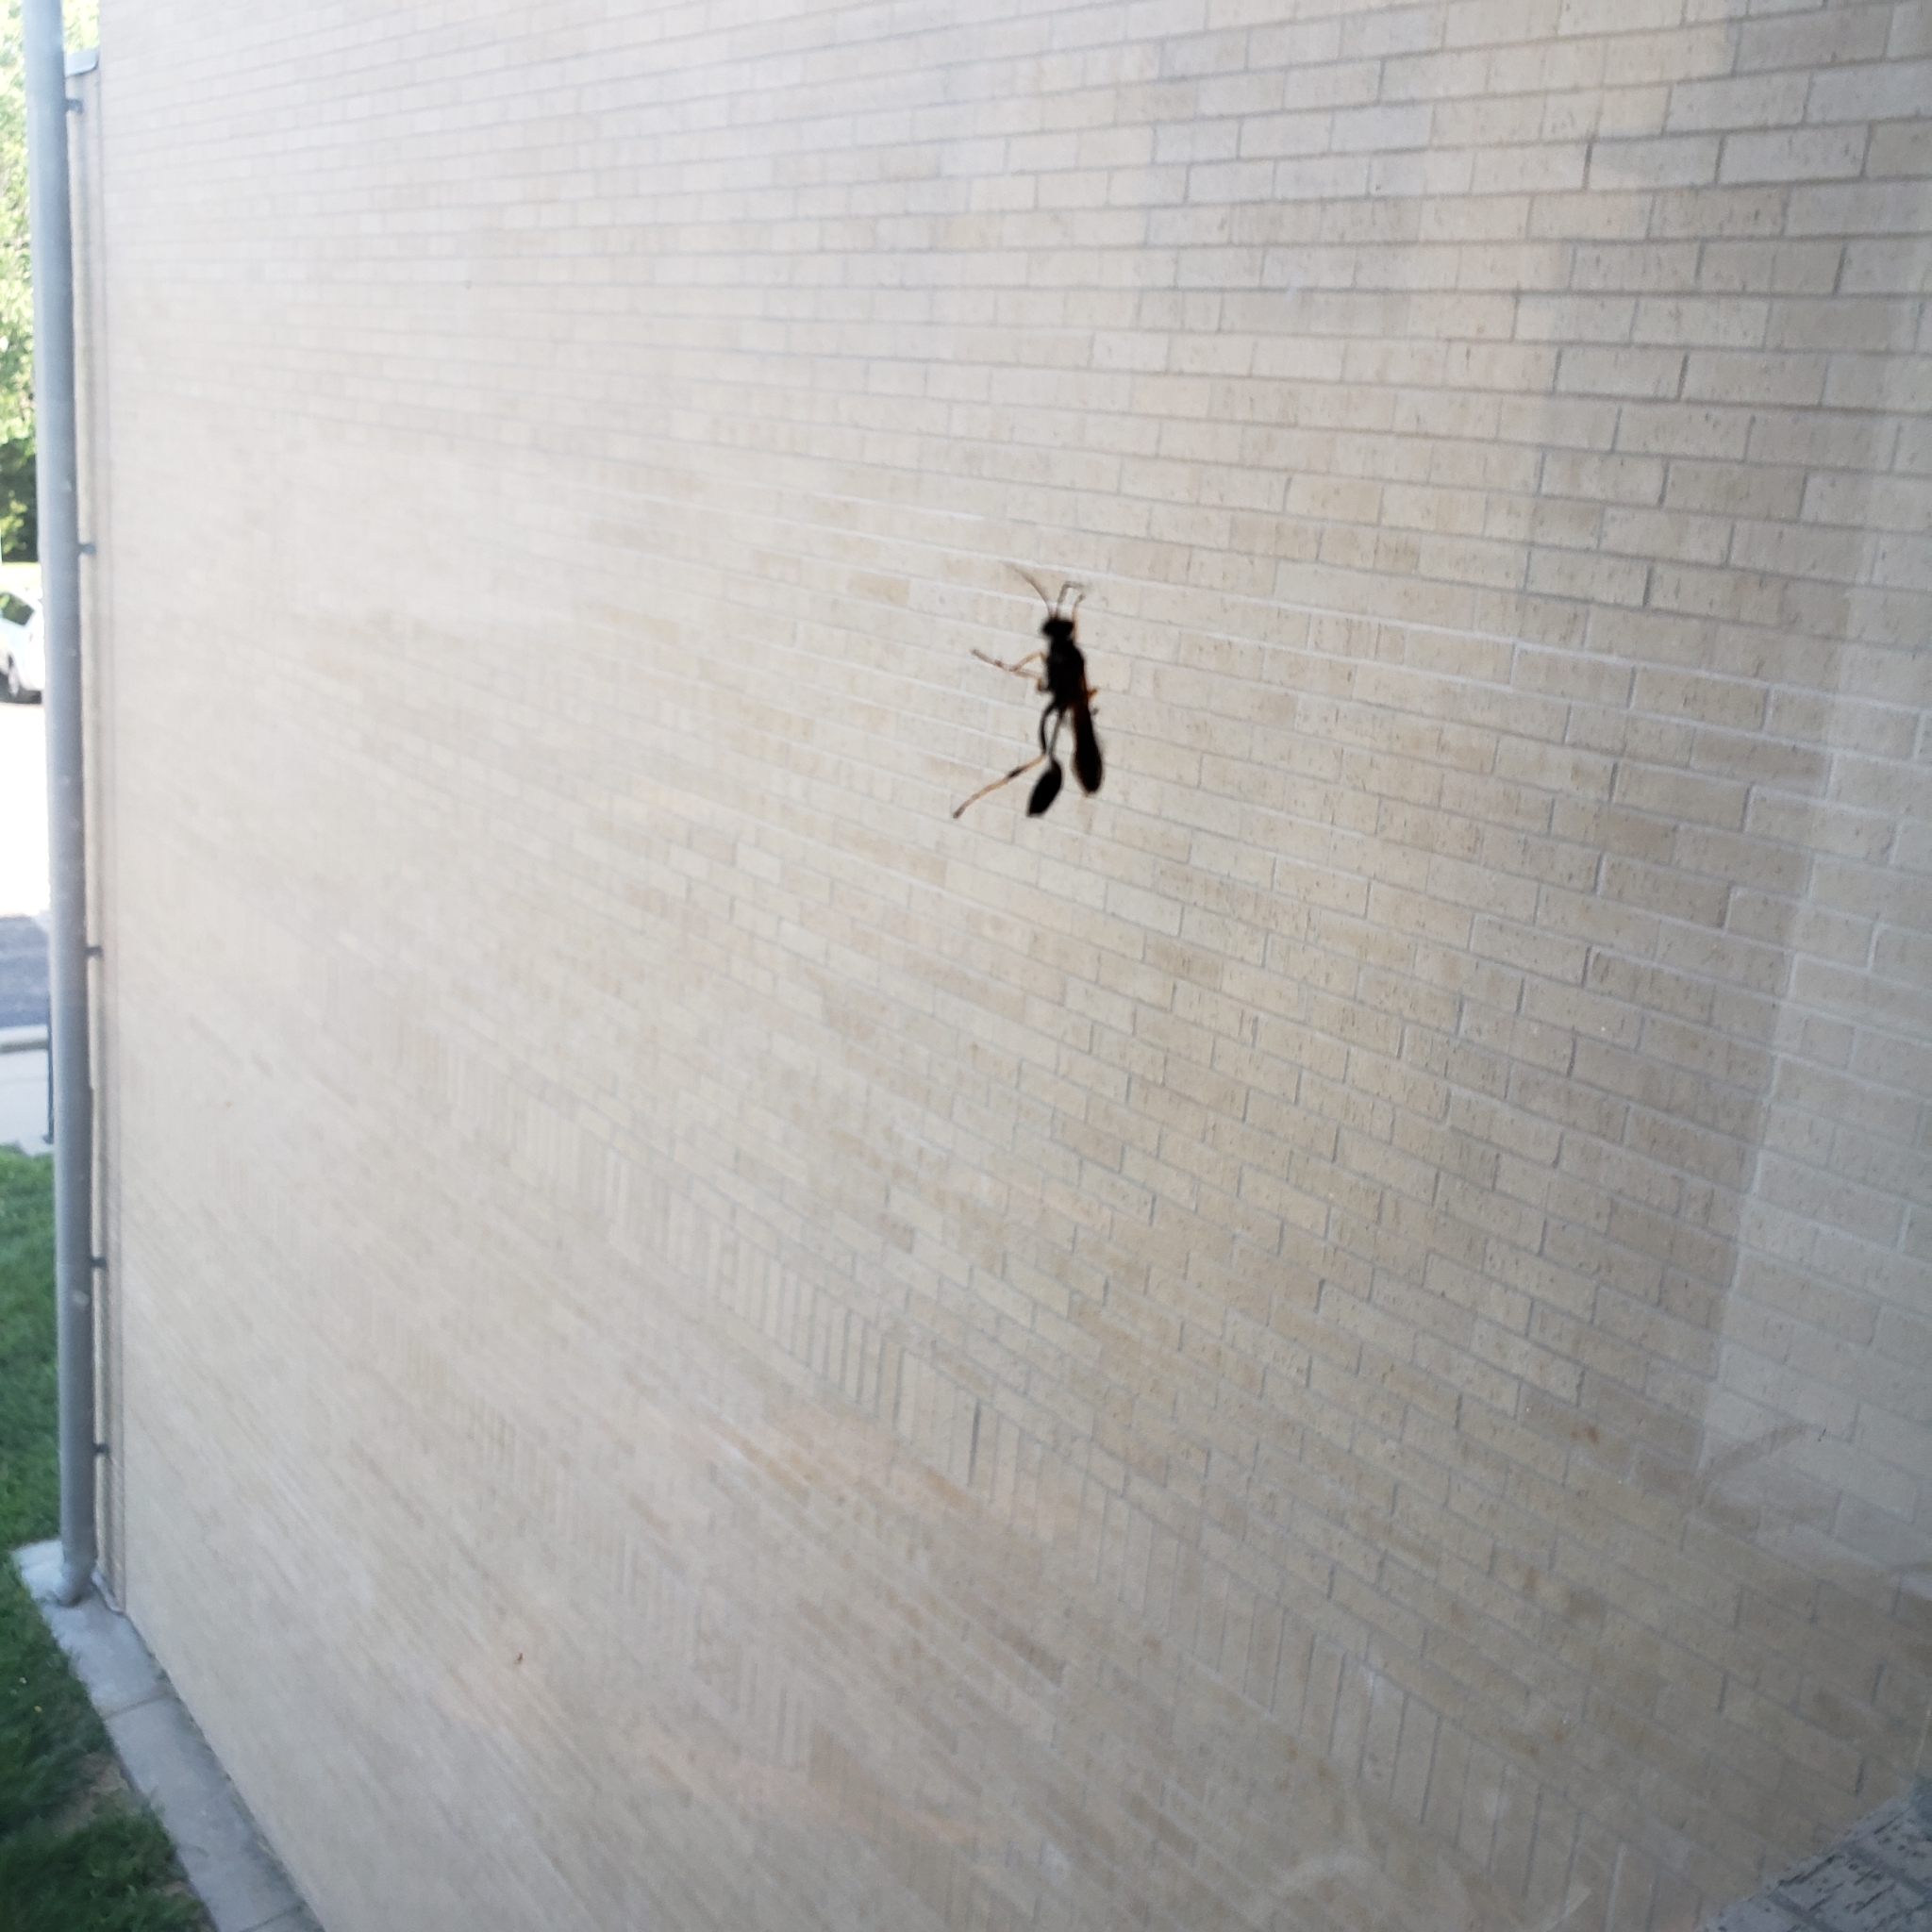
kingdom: Animalia
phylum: Arthropoda
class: Insecta
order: Hymenoptera
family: Sphecidae
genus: Sceliphron
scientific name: Sceliphron caementarium
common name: Mud dauber
